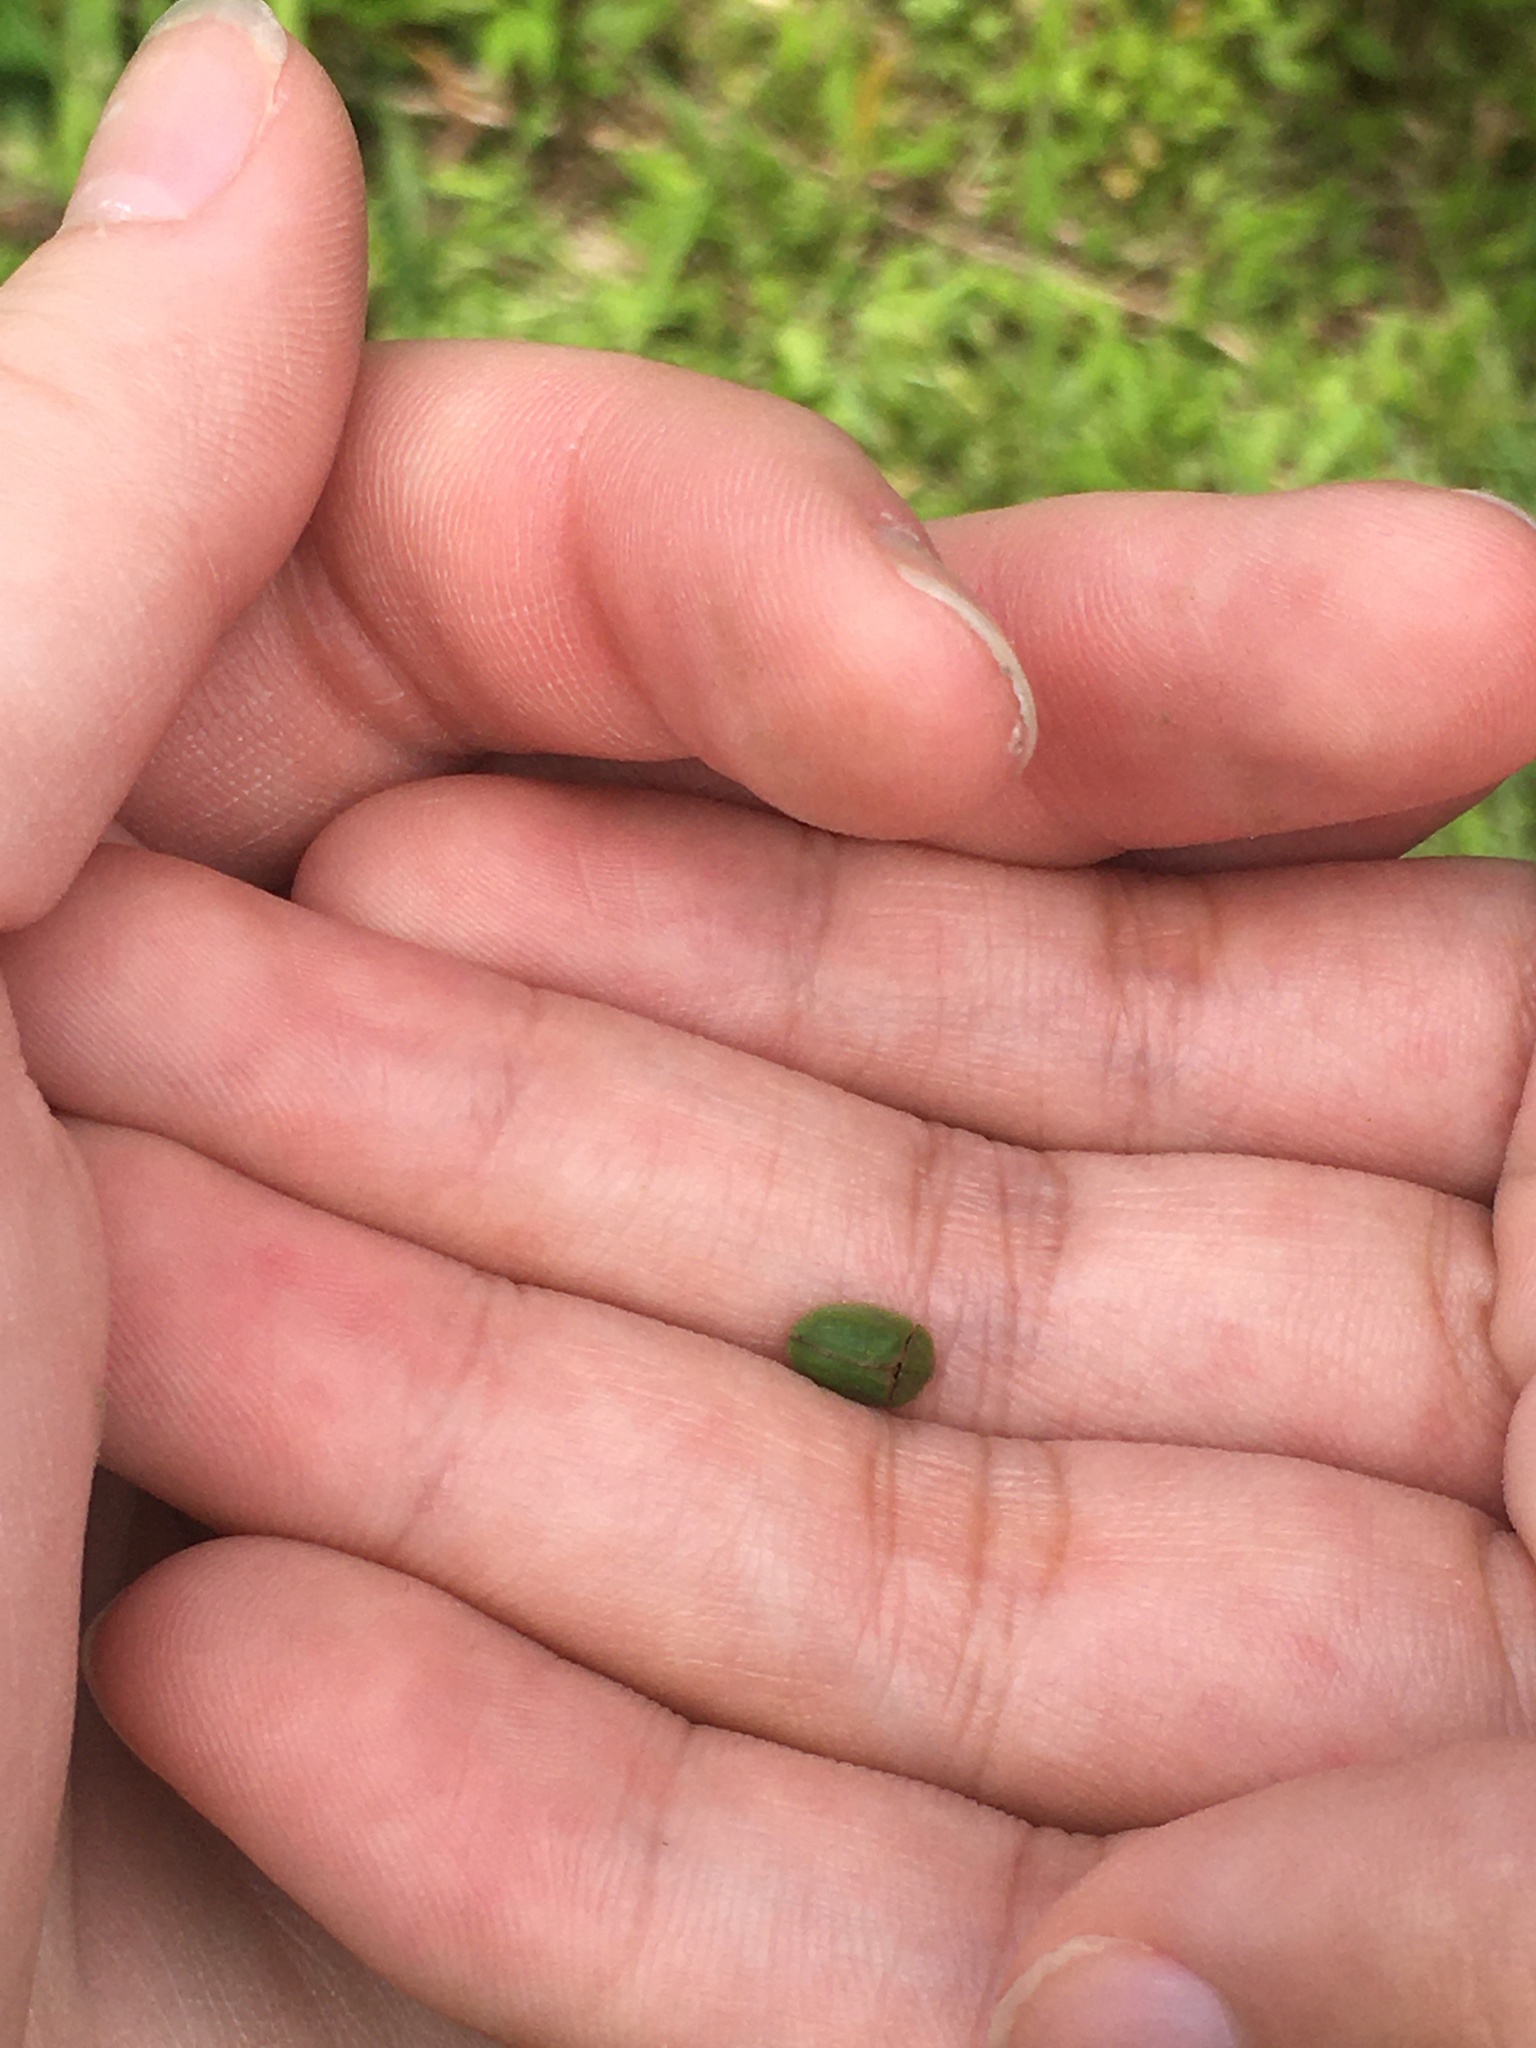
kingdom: Animalia
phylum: Arthropoda
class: Insecta
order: Coleoptera
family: Chrysomelidae
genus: Cassida
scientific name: Cassida rubiginosa
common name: Thistle tortoise beetle
